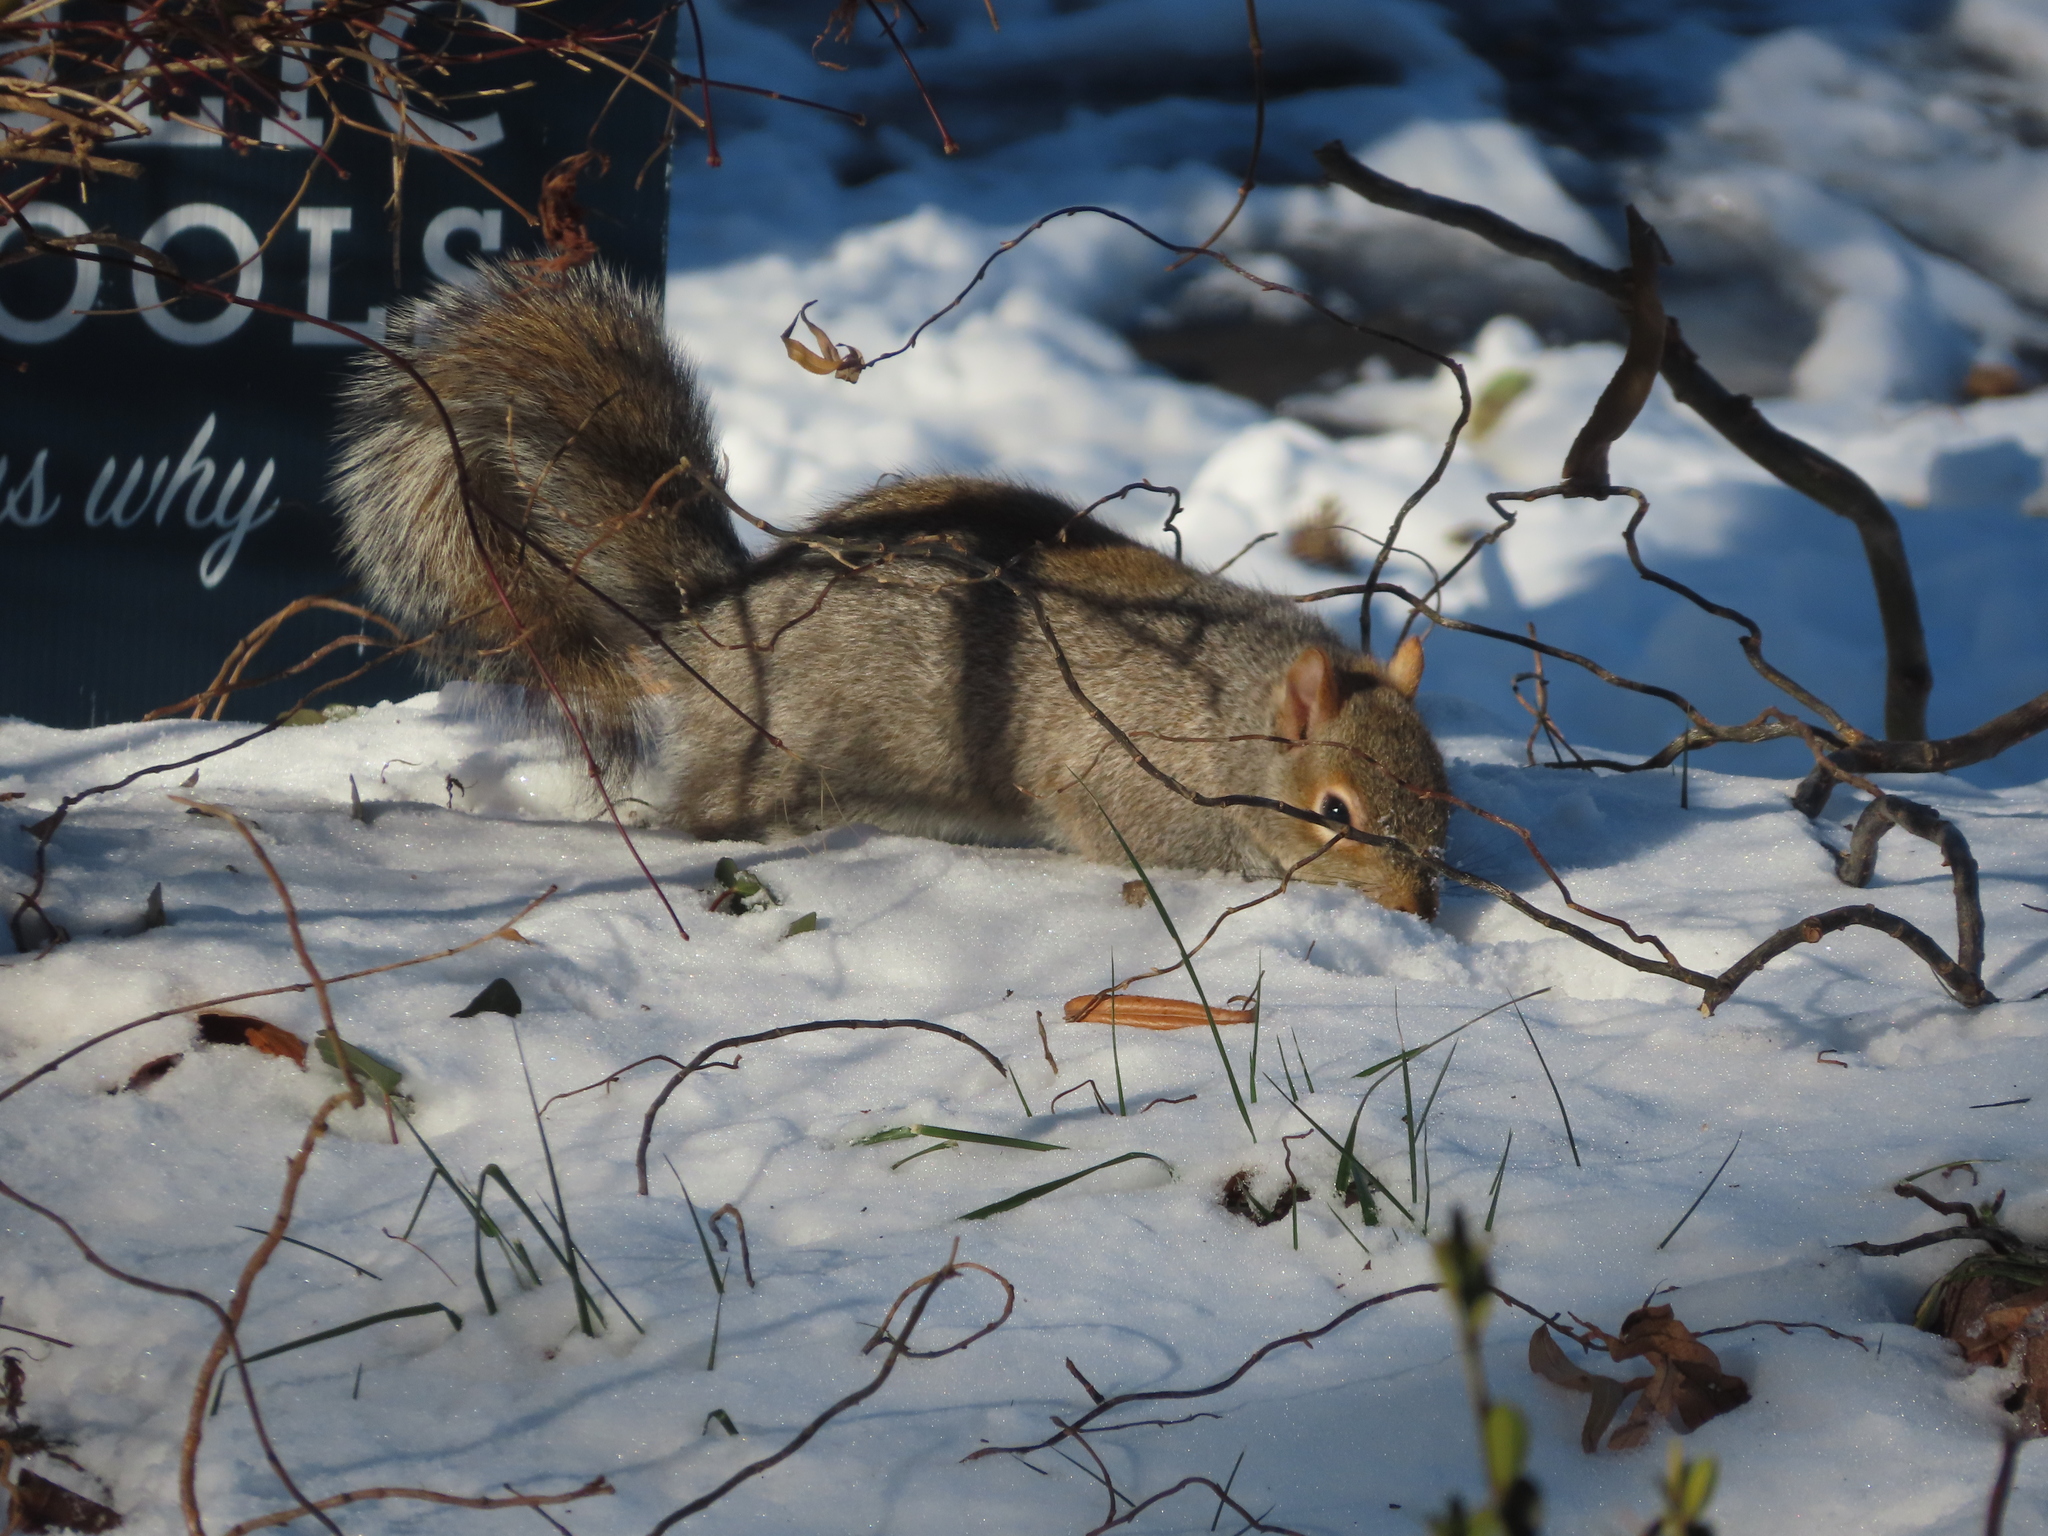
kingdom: Animalia
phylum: Chordata
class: Mammalia
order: Rodentia
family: Sciuridae
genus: Sciurus
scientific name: Sciurus carolinensis
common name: Eastern gray squirrel
